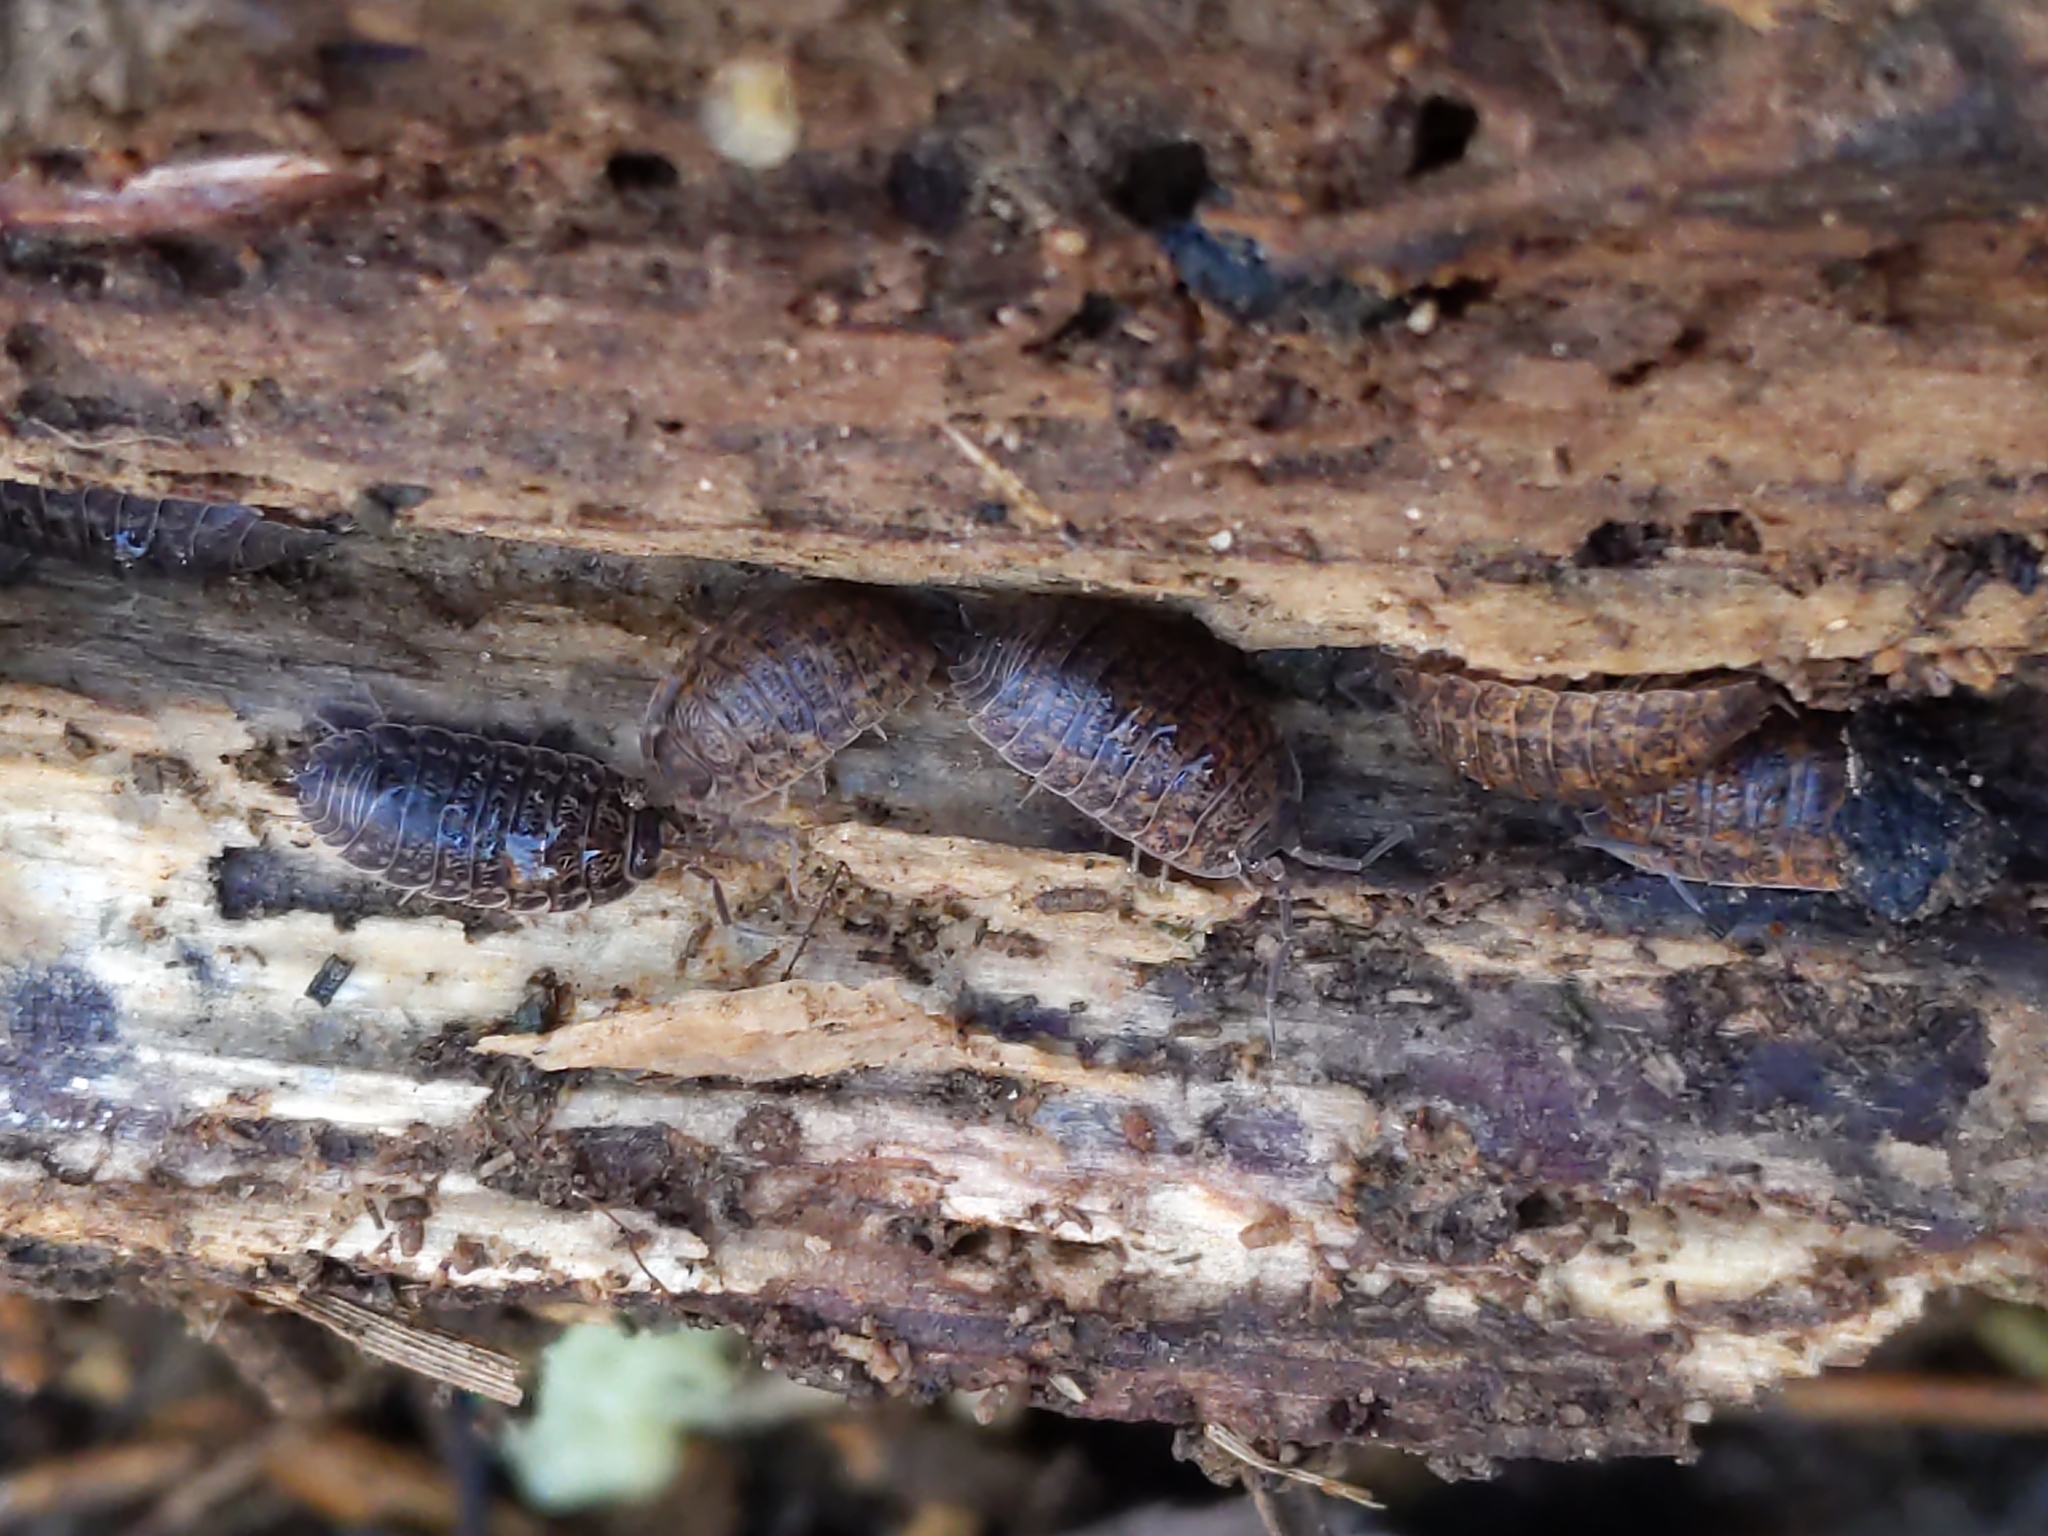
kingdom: Animalia
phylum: Arthropoda
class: Malacostraca
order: Isopoda
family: Trachelipodidae
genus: Trachelipus
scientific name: Trachelipus rathkii
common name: Isopod
